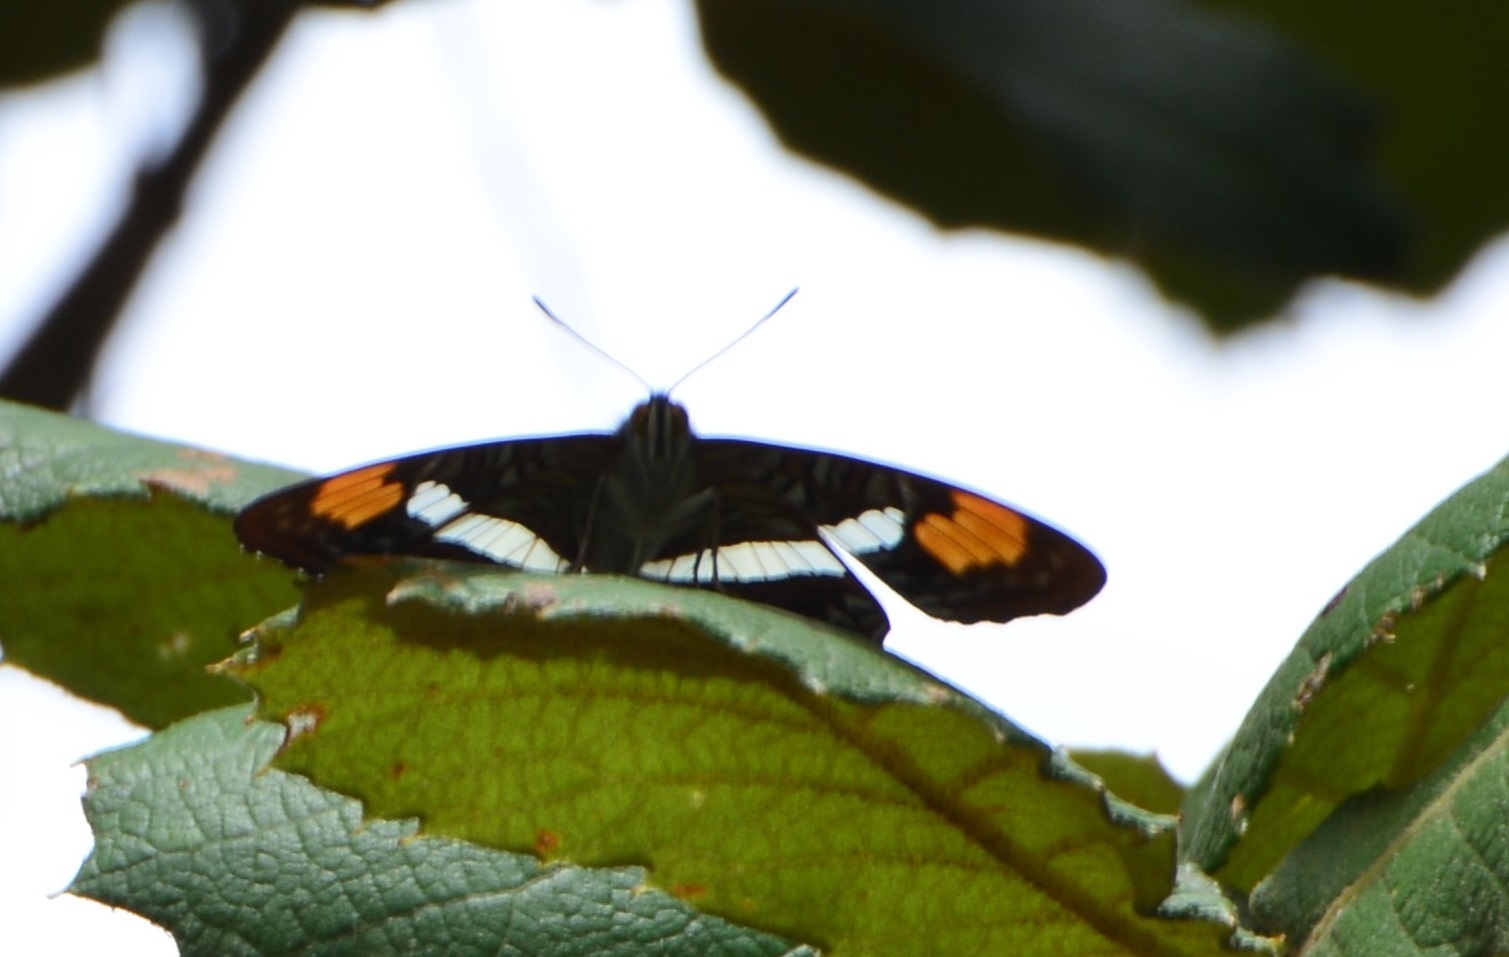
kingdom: Animalia
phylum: Arthropoda
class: Insecta
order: Lepidoptera
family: Nymphalidae
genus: Limenitis
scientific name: Limenitis donysa
